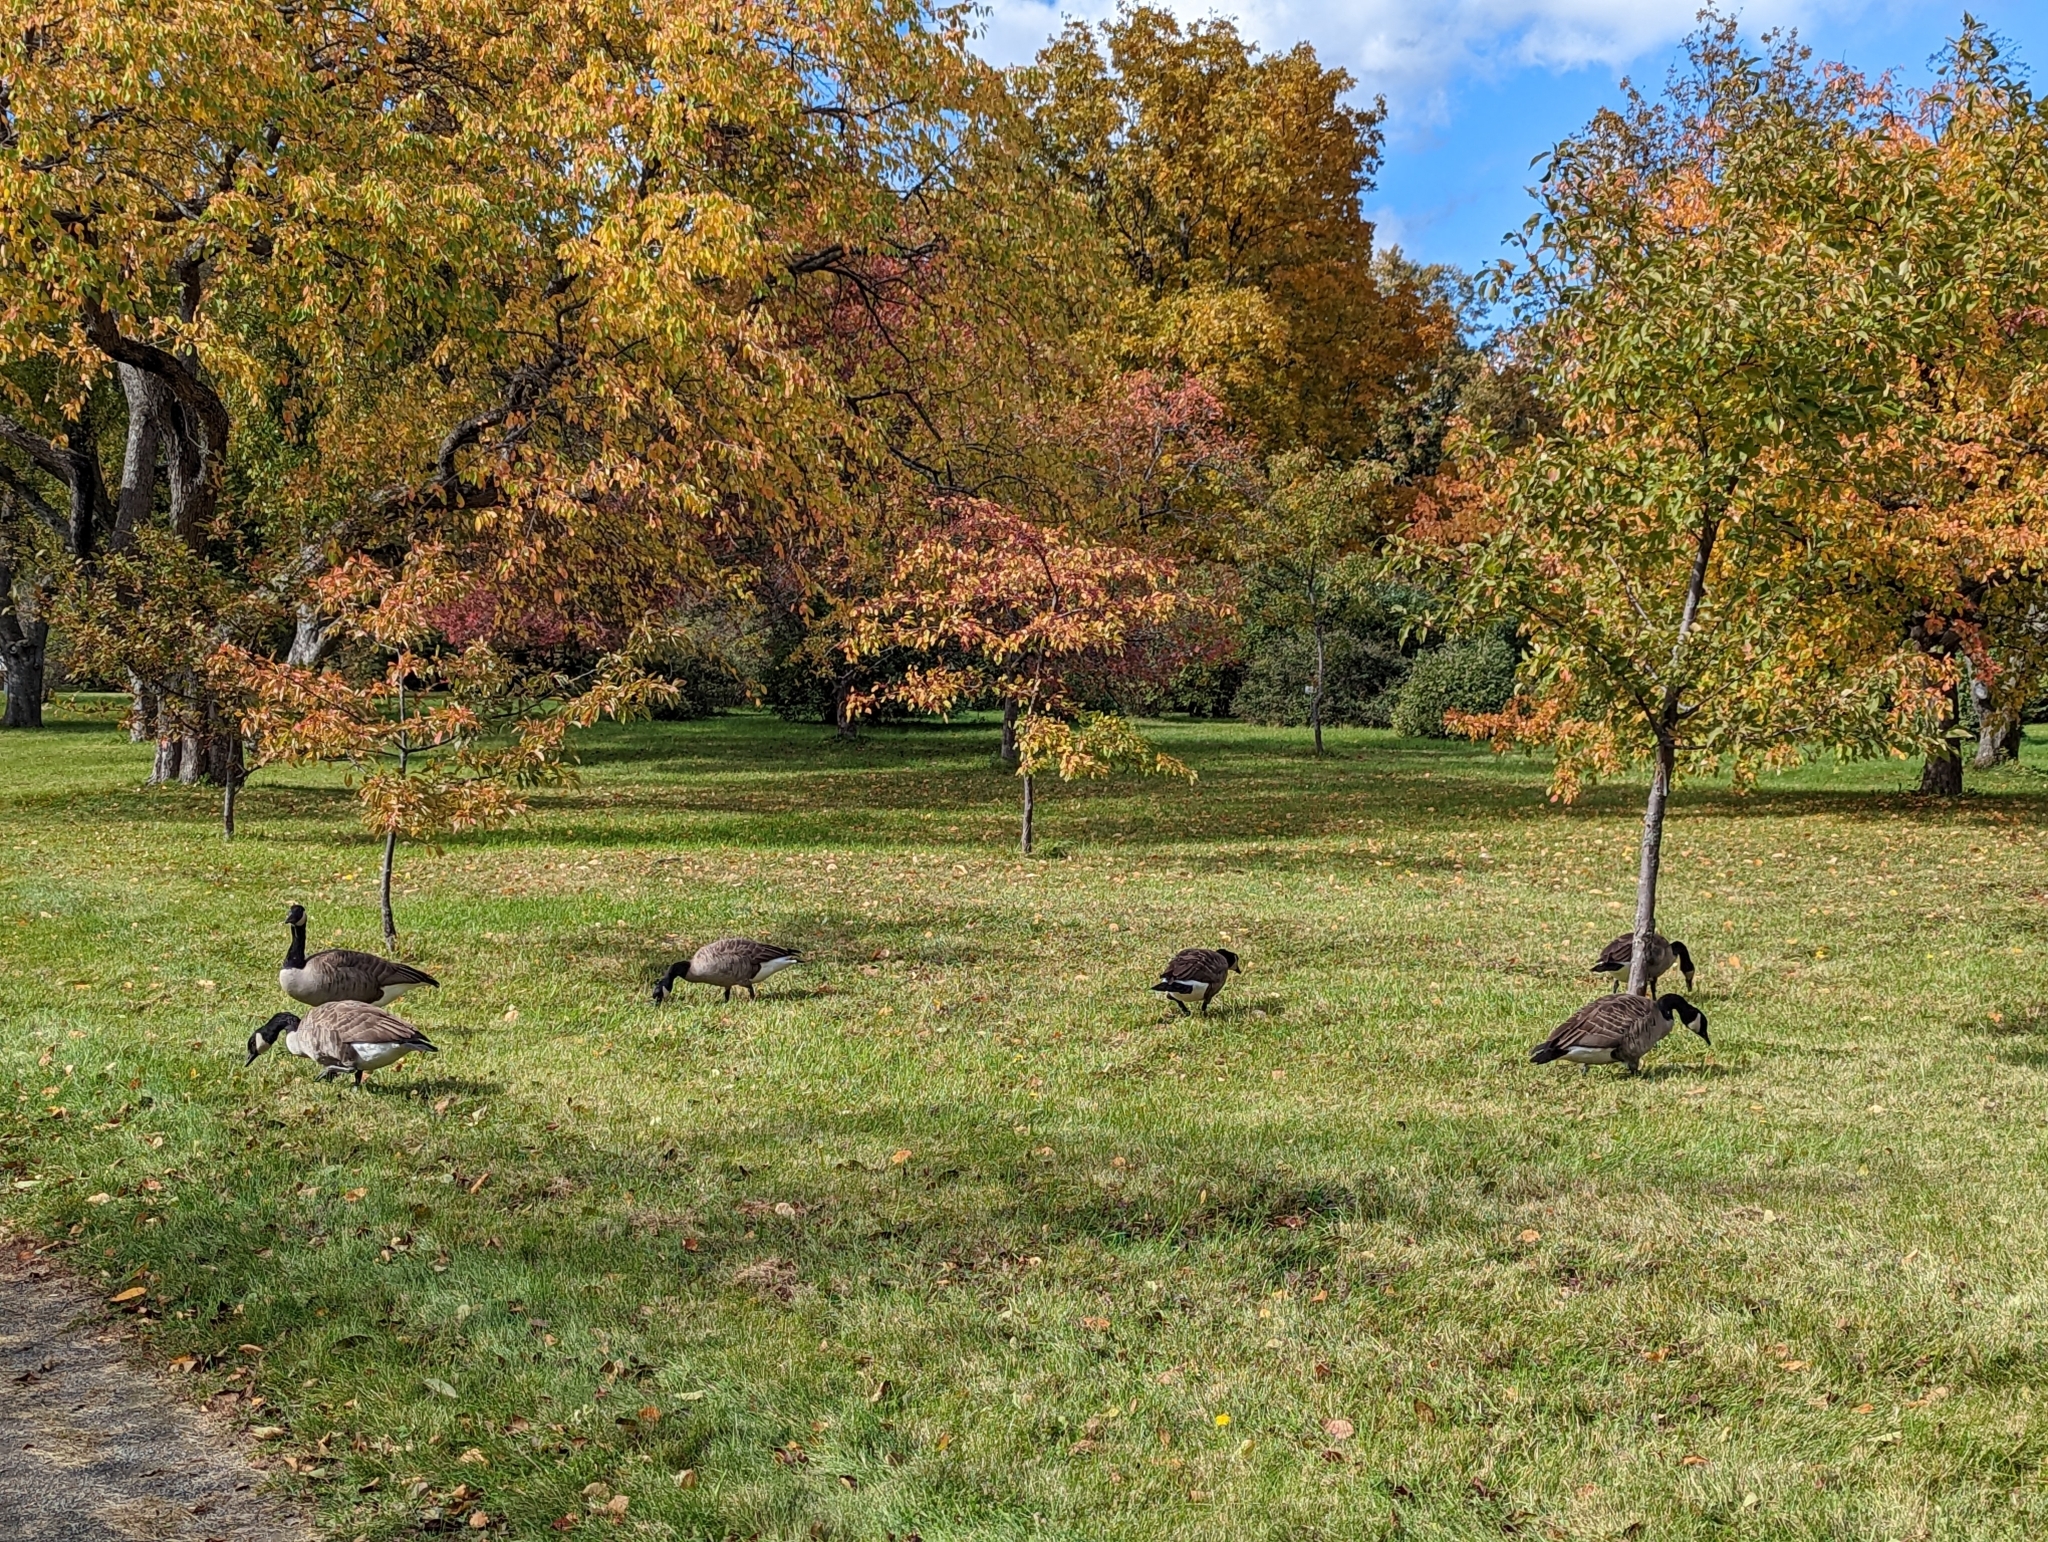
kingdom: Animalia
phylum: Chordata
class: Aves
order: Anseriformes
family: Anatidae
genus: Branta
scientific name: Branta canadensis
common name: Canada goose
